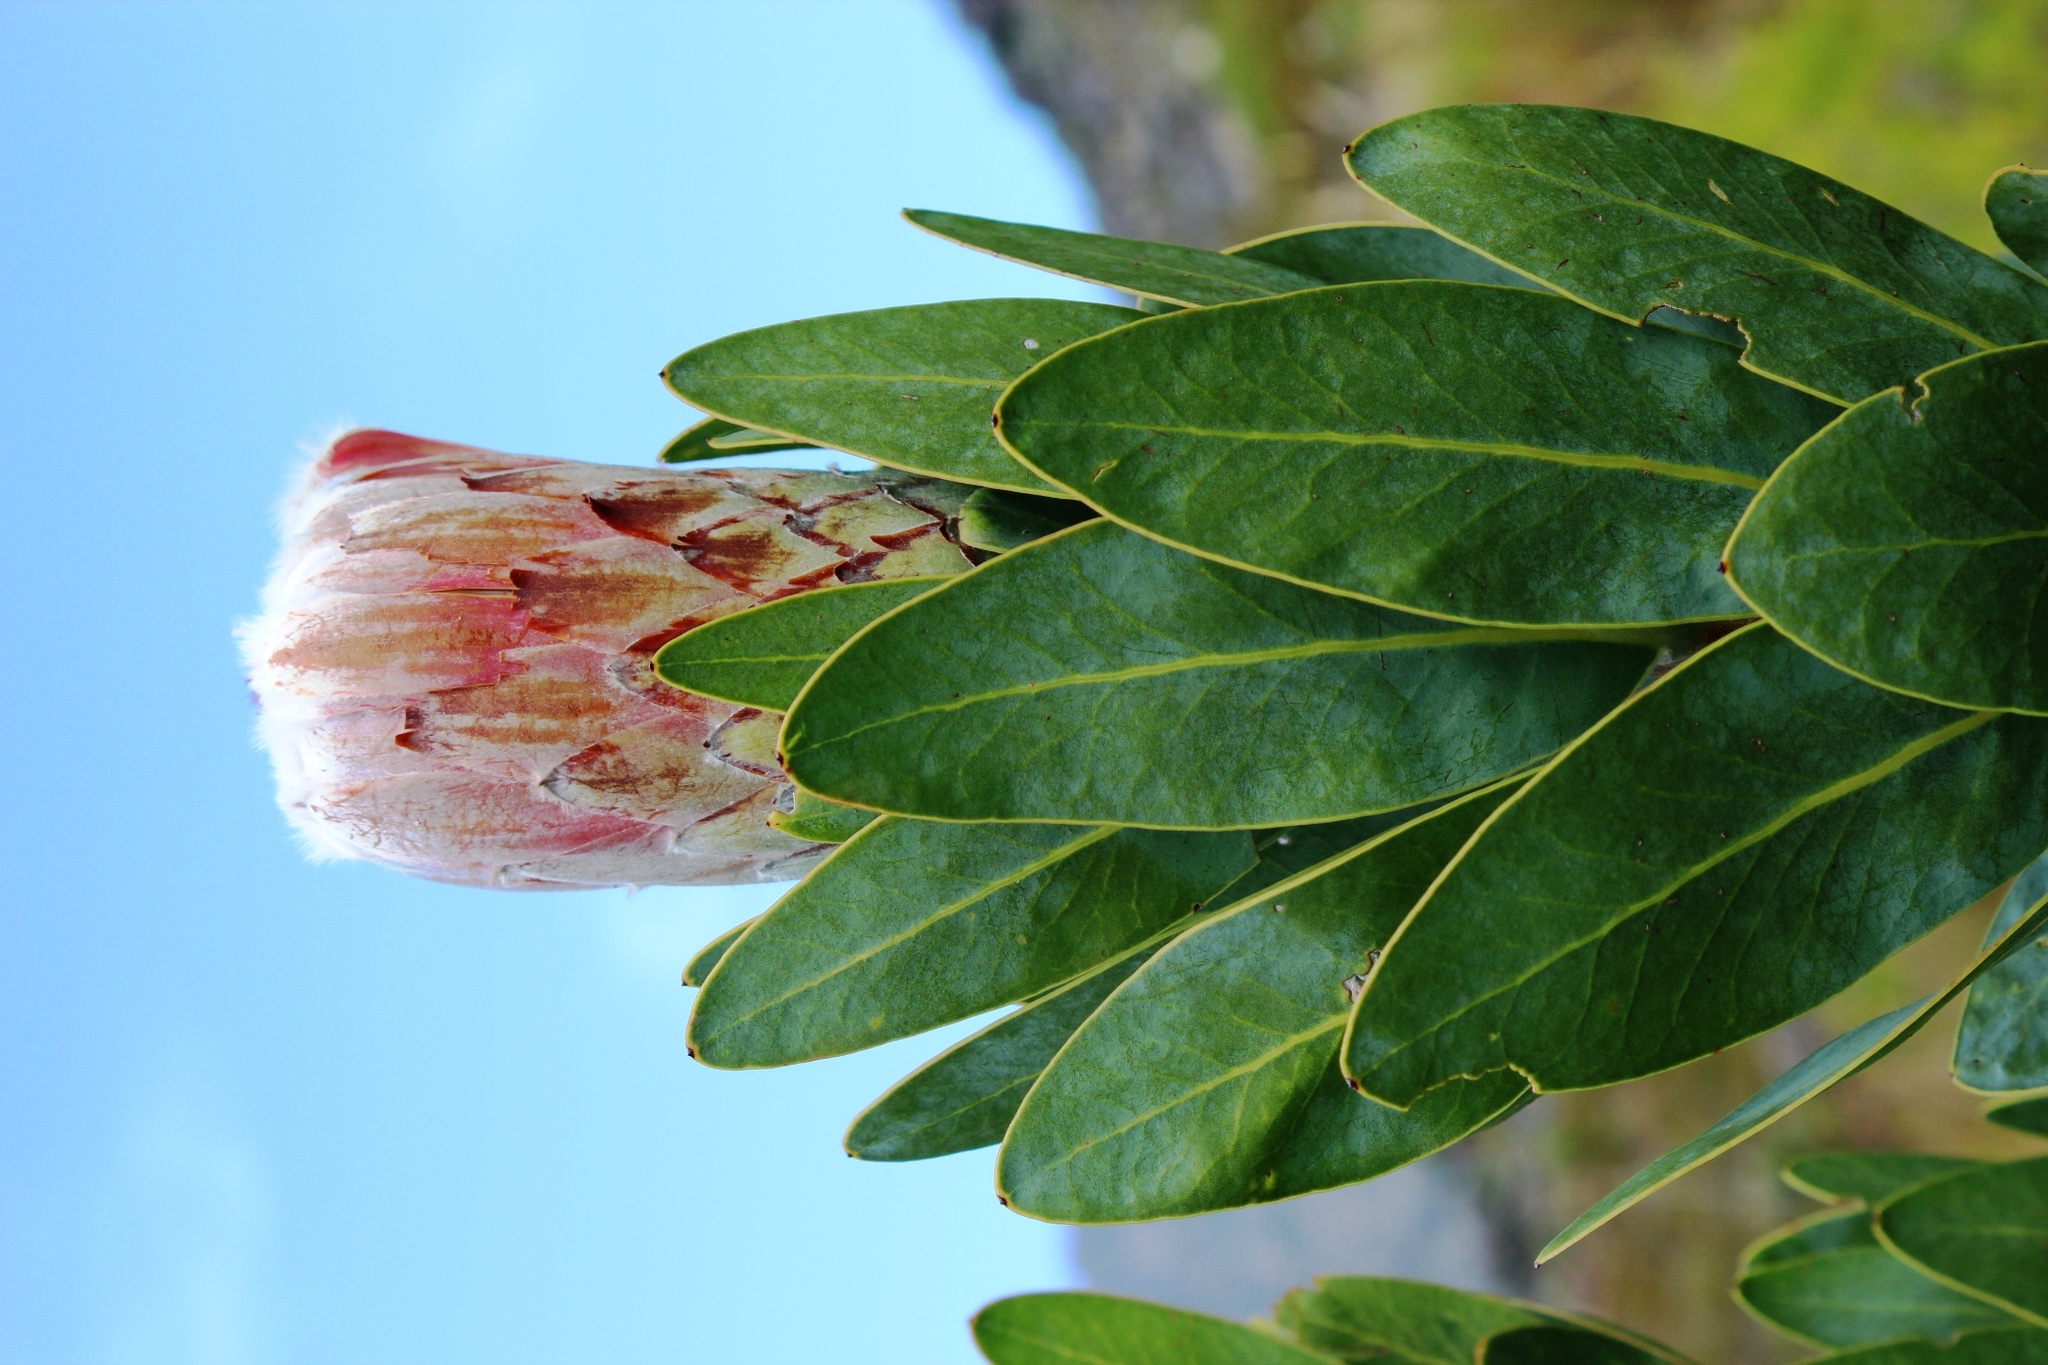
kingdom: Plantae
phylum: Tracheophyta
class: Magnoliopsida
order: Proteales
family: Proteaceae
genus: Protea
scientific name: Protea laurifolia
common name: Grey-leaf sugarbsh
